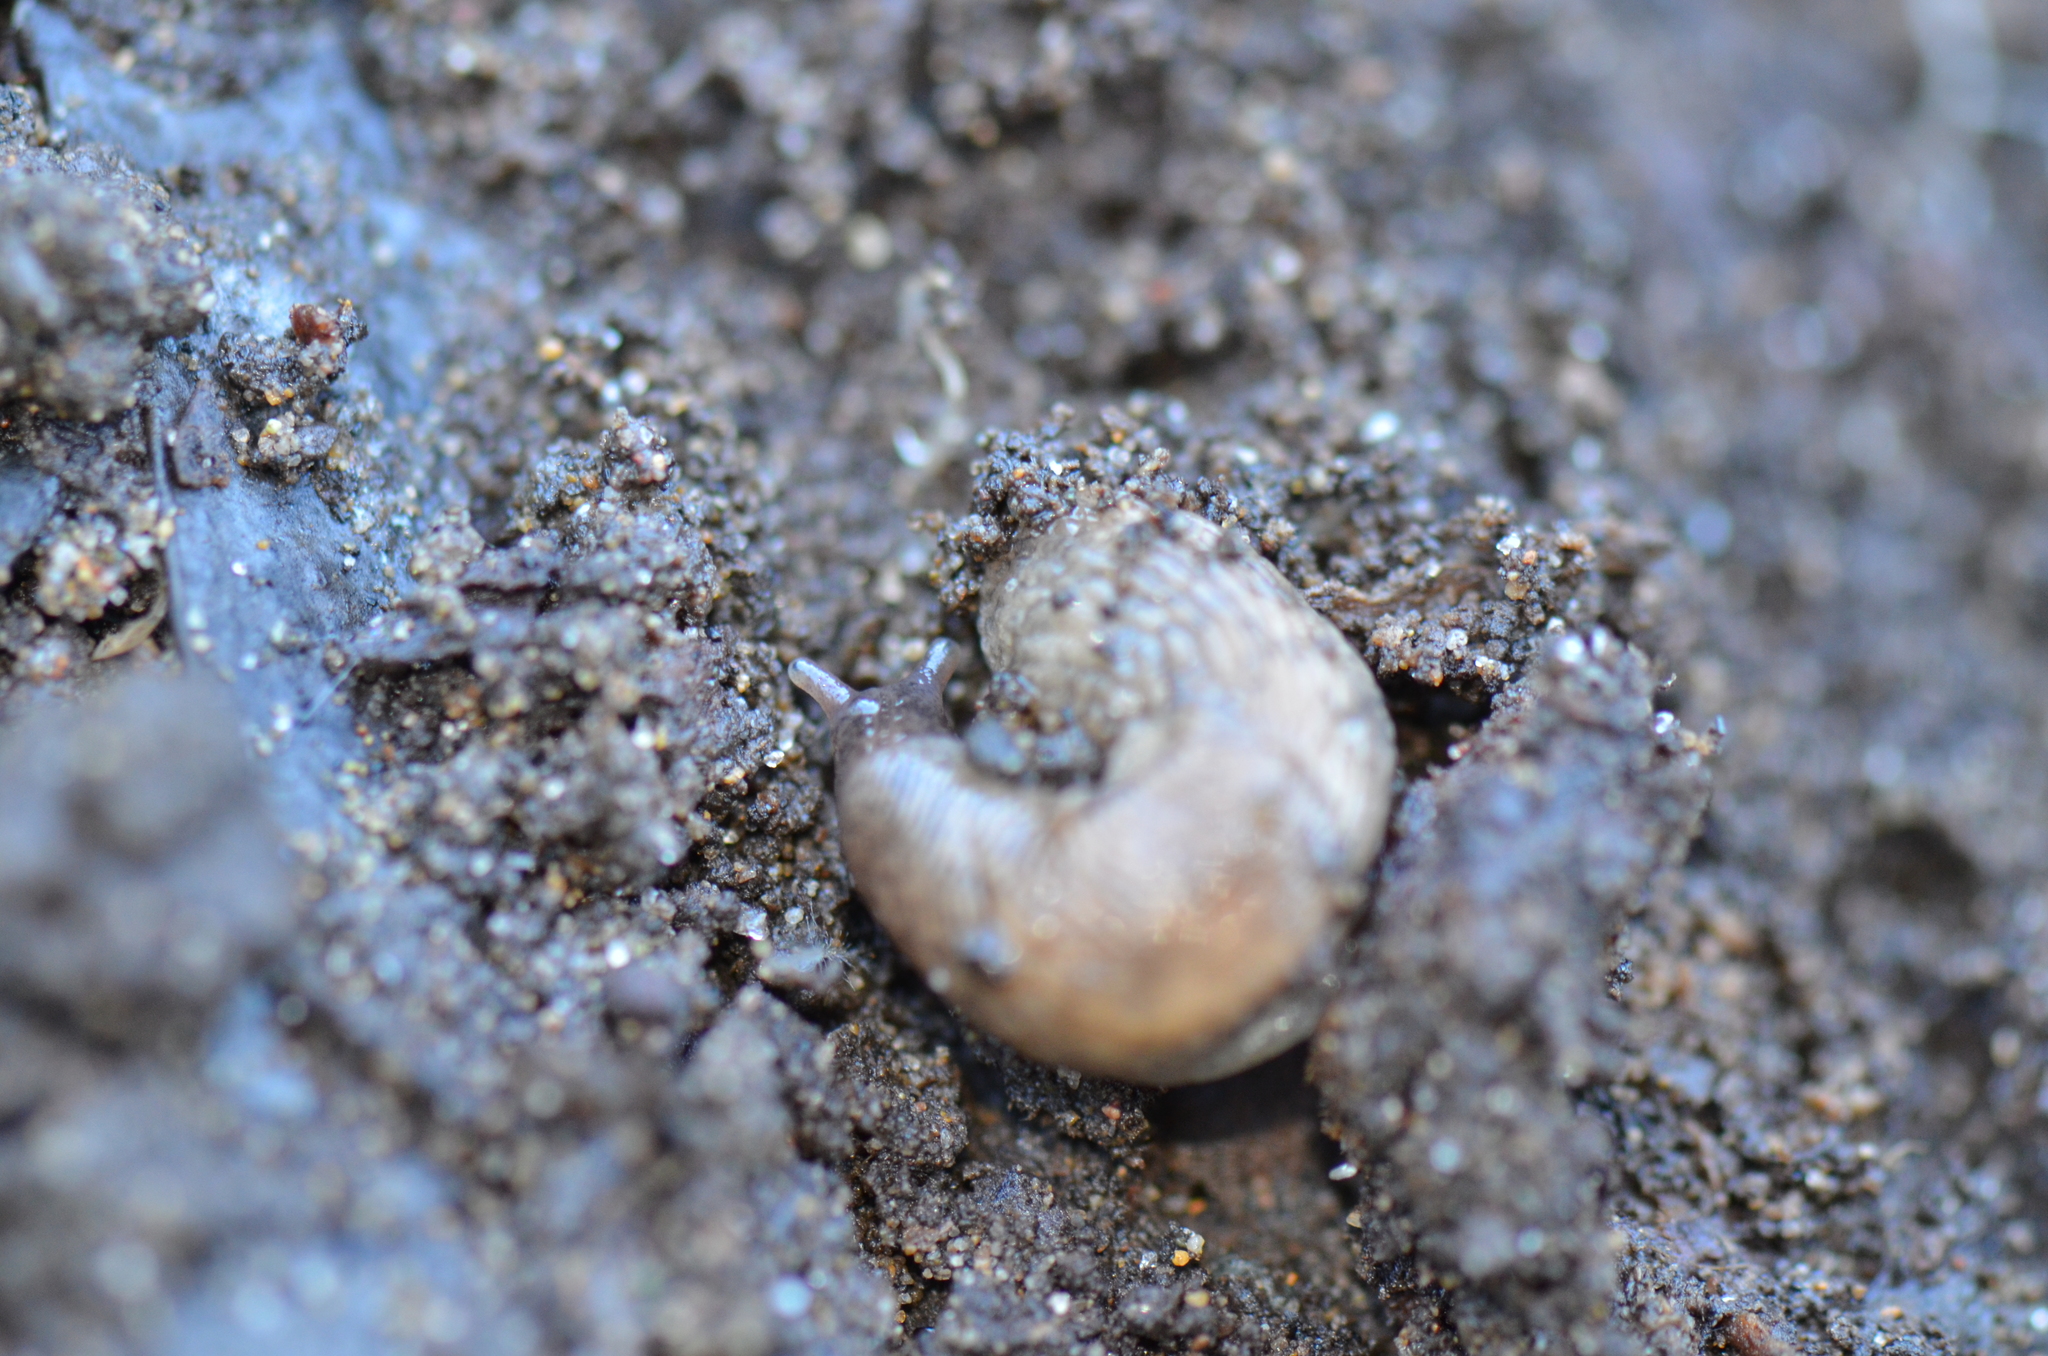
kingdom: Animalia
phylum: Mollusca
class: Gastropoda
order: Stylommatophora
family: Agriolimacidae
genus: Deroceras
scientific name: Deroceras reticulatum
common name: Gray field slug
